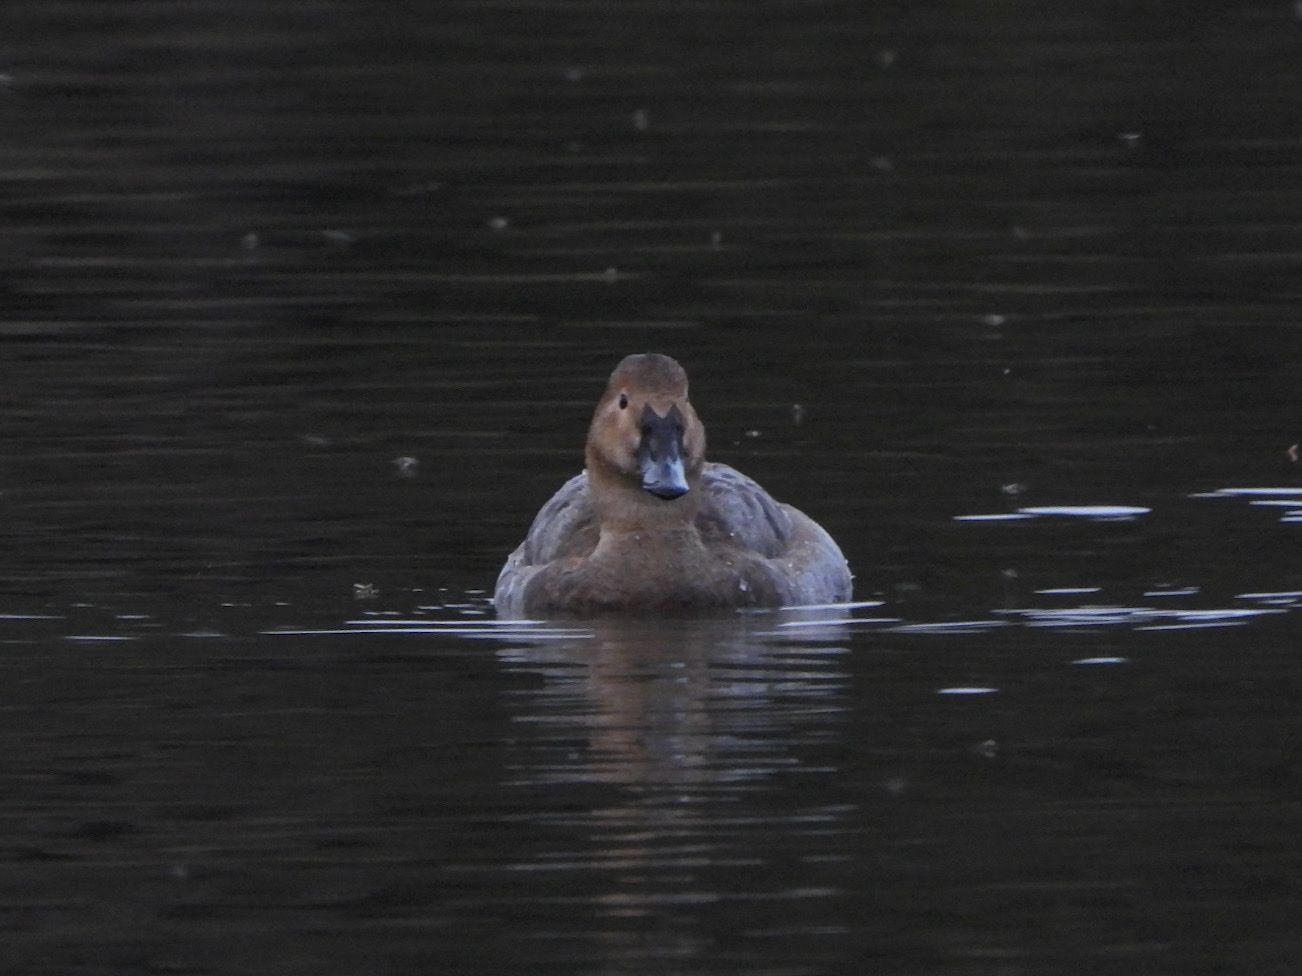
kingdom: Animalia
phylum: Chordata
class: Aves
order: Anseriformes
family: Anatidae
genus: Aythya
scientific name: Aythya valisineria
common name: Canvasback
